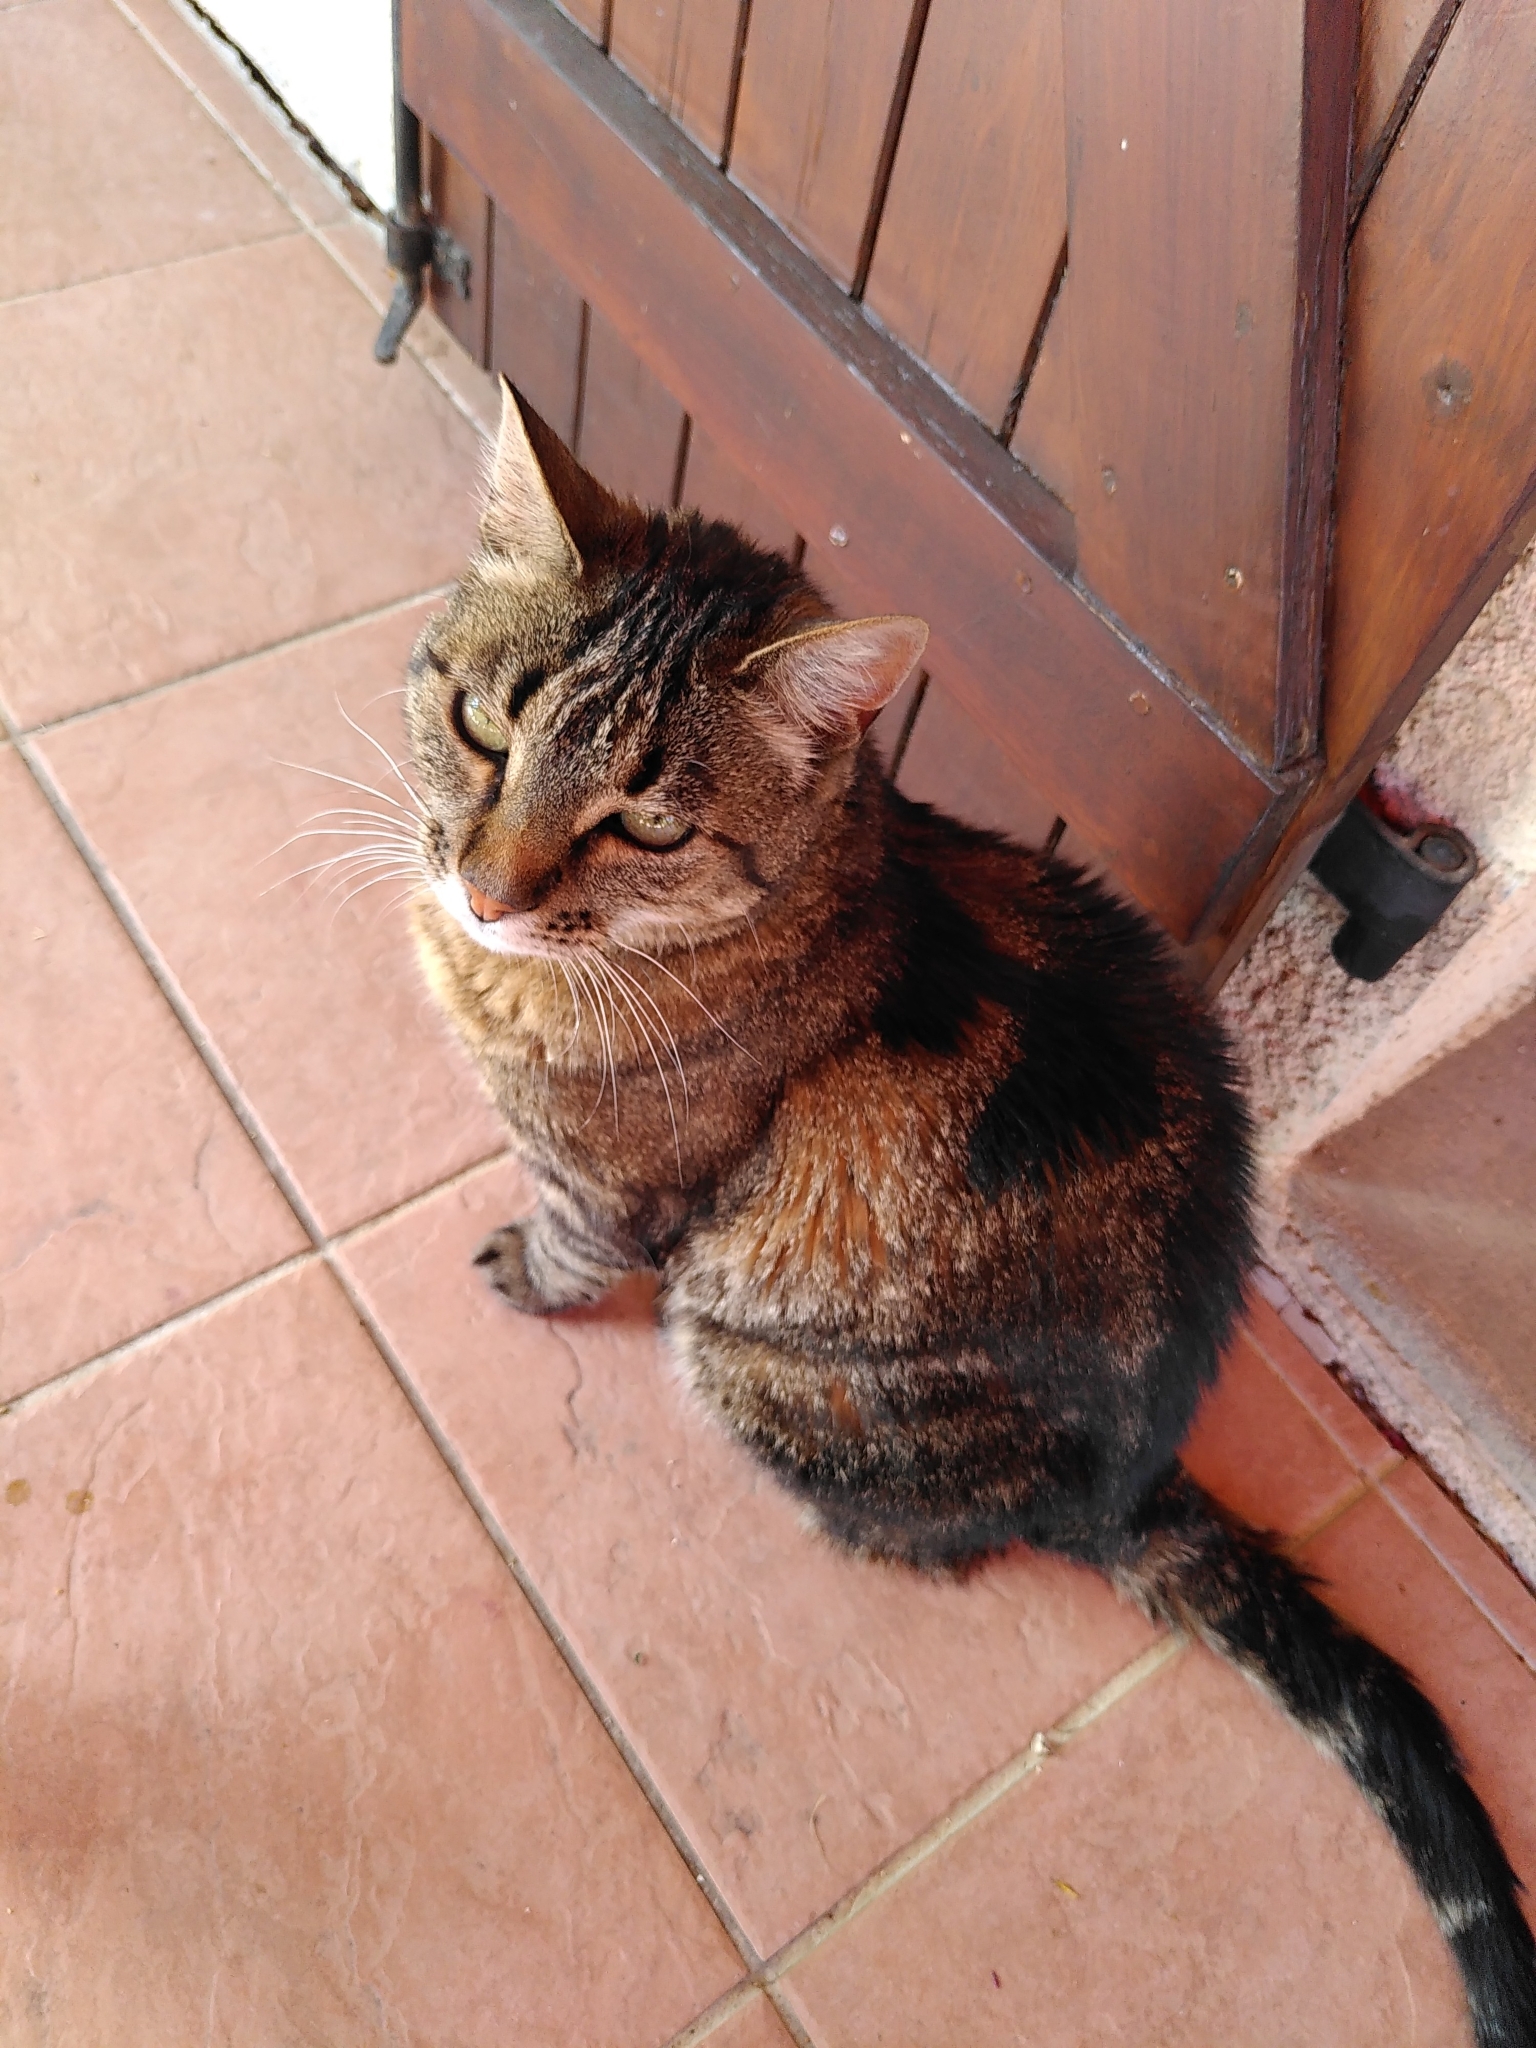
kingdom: Animalia
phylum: Chordata
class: Mammalia
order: Carnivora
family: Felidae
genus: Felis
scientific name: Felis catus
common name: Domestic cat
